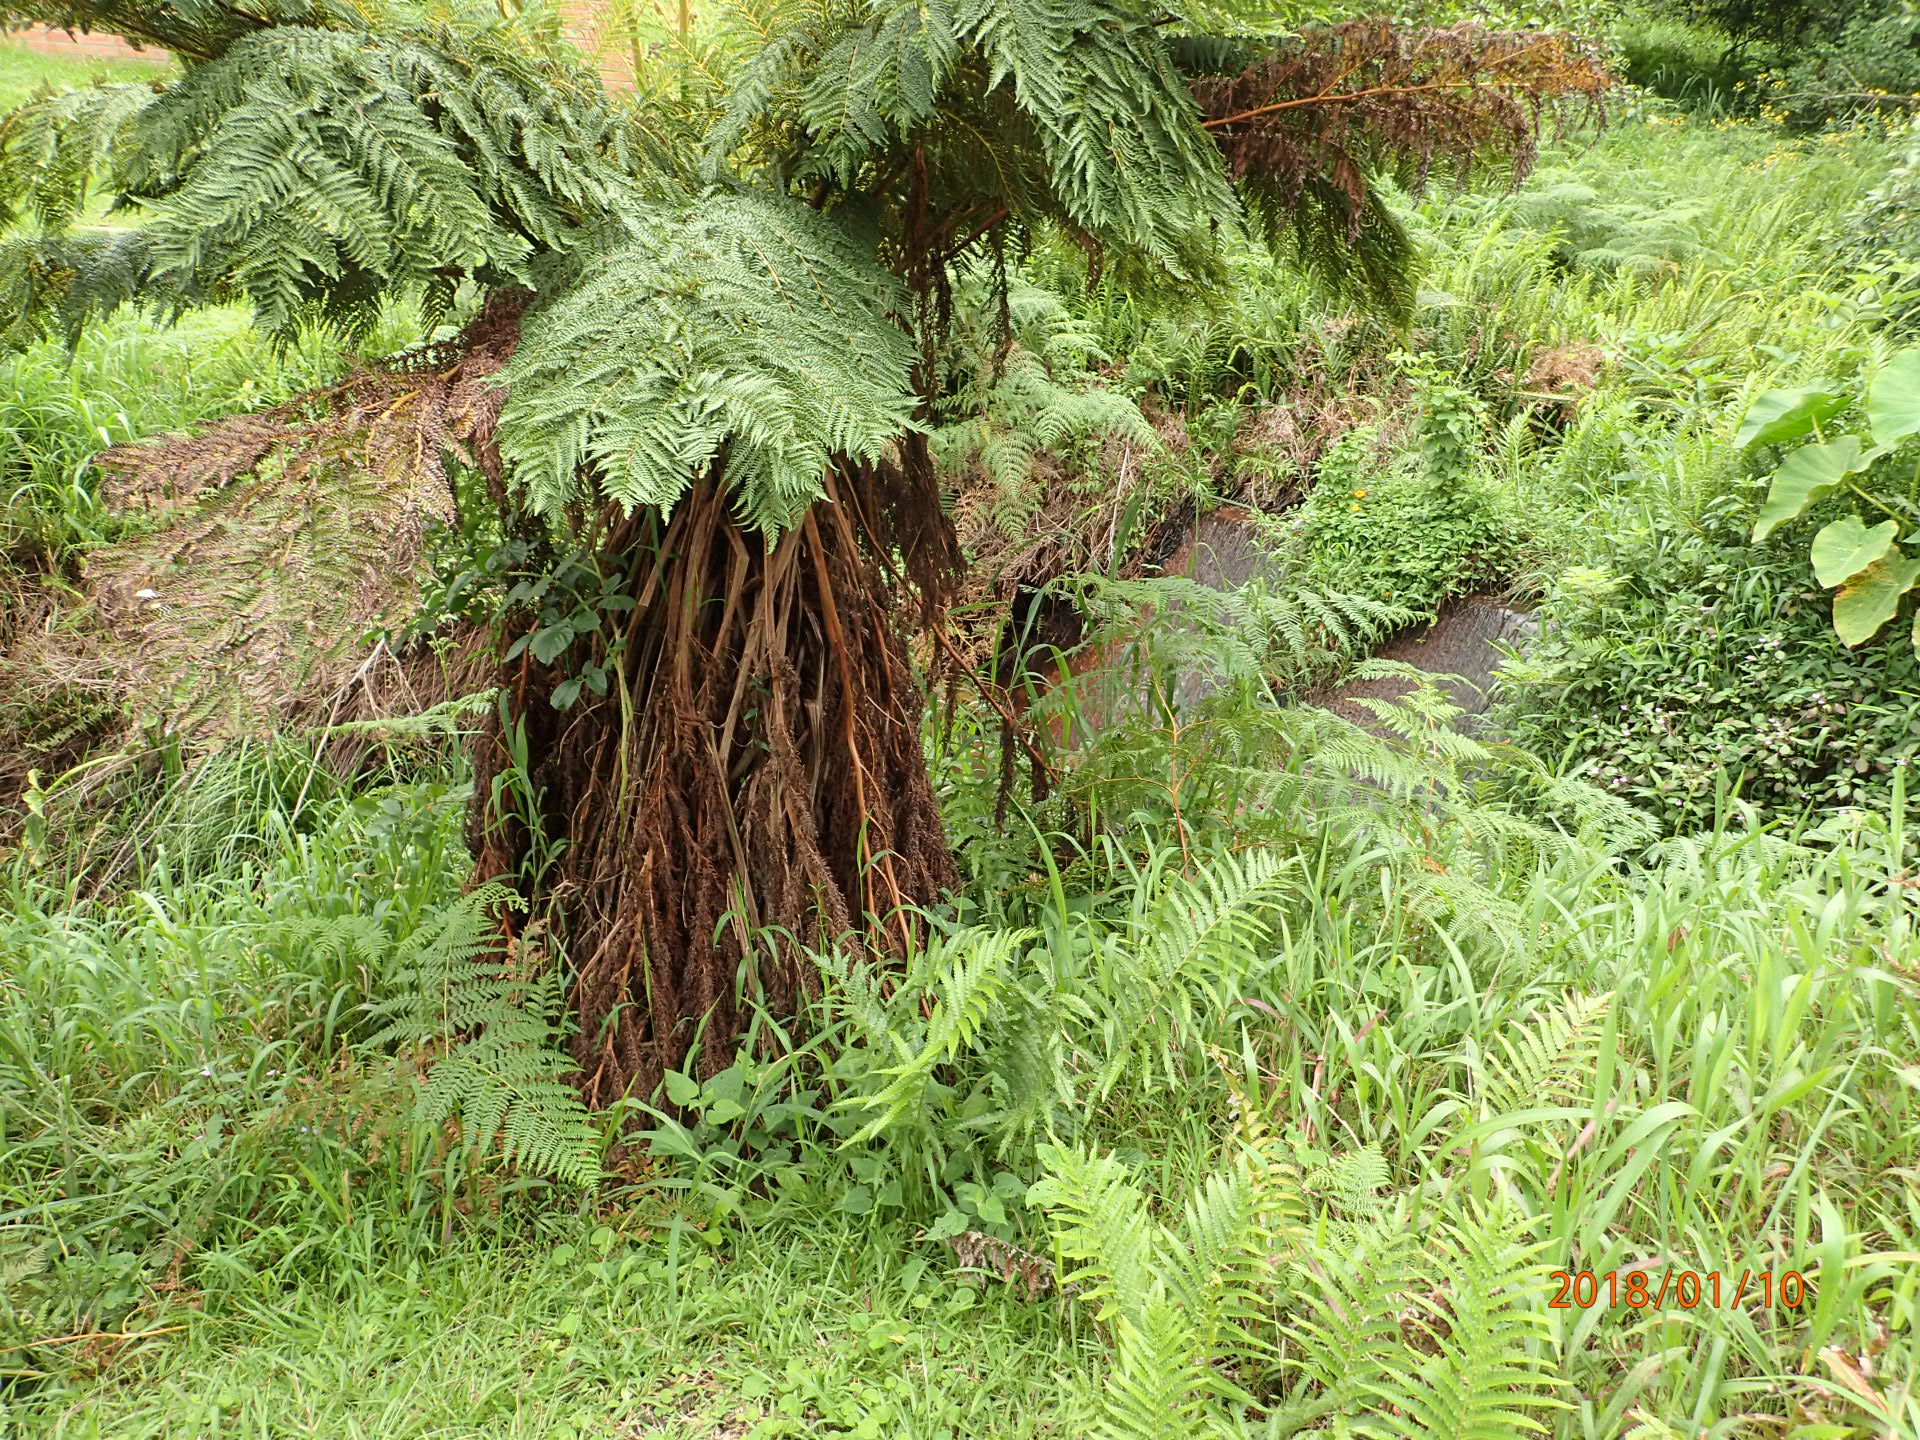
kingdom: Plantae
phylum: Tracheophyta
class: Polypodiopsida
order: Cyatheales
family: Cyatheaceae
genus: Alsophila
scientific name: Alsophila dregei
